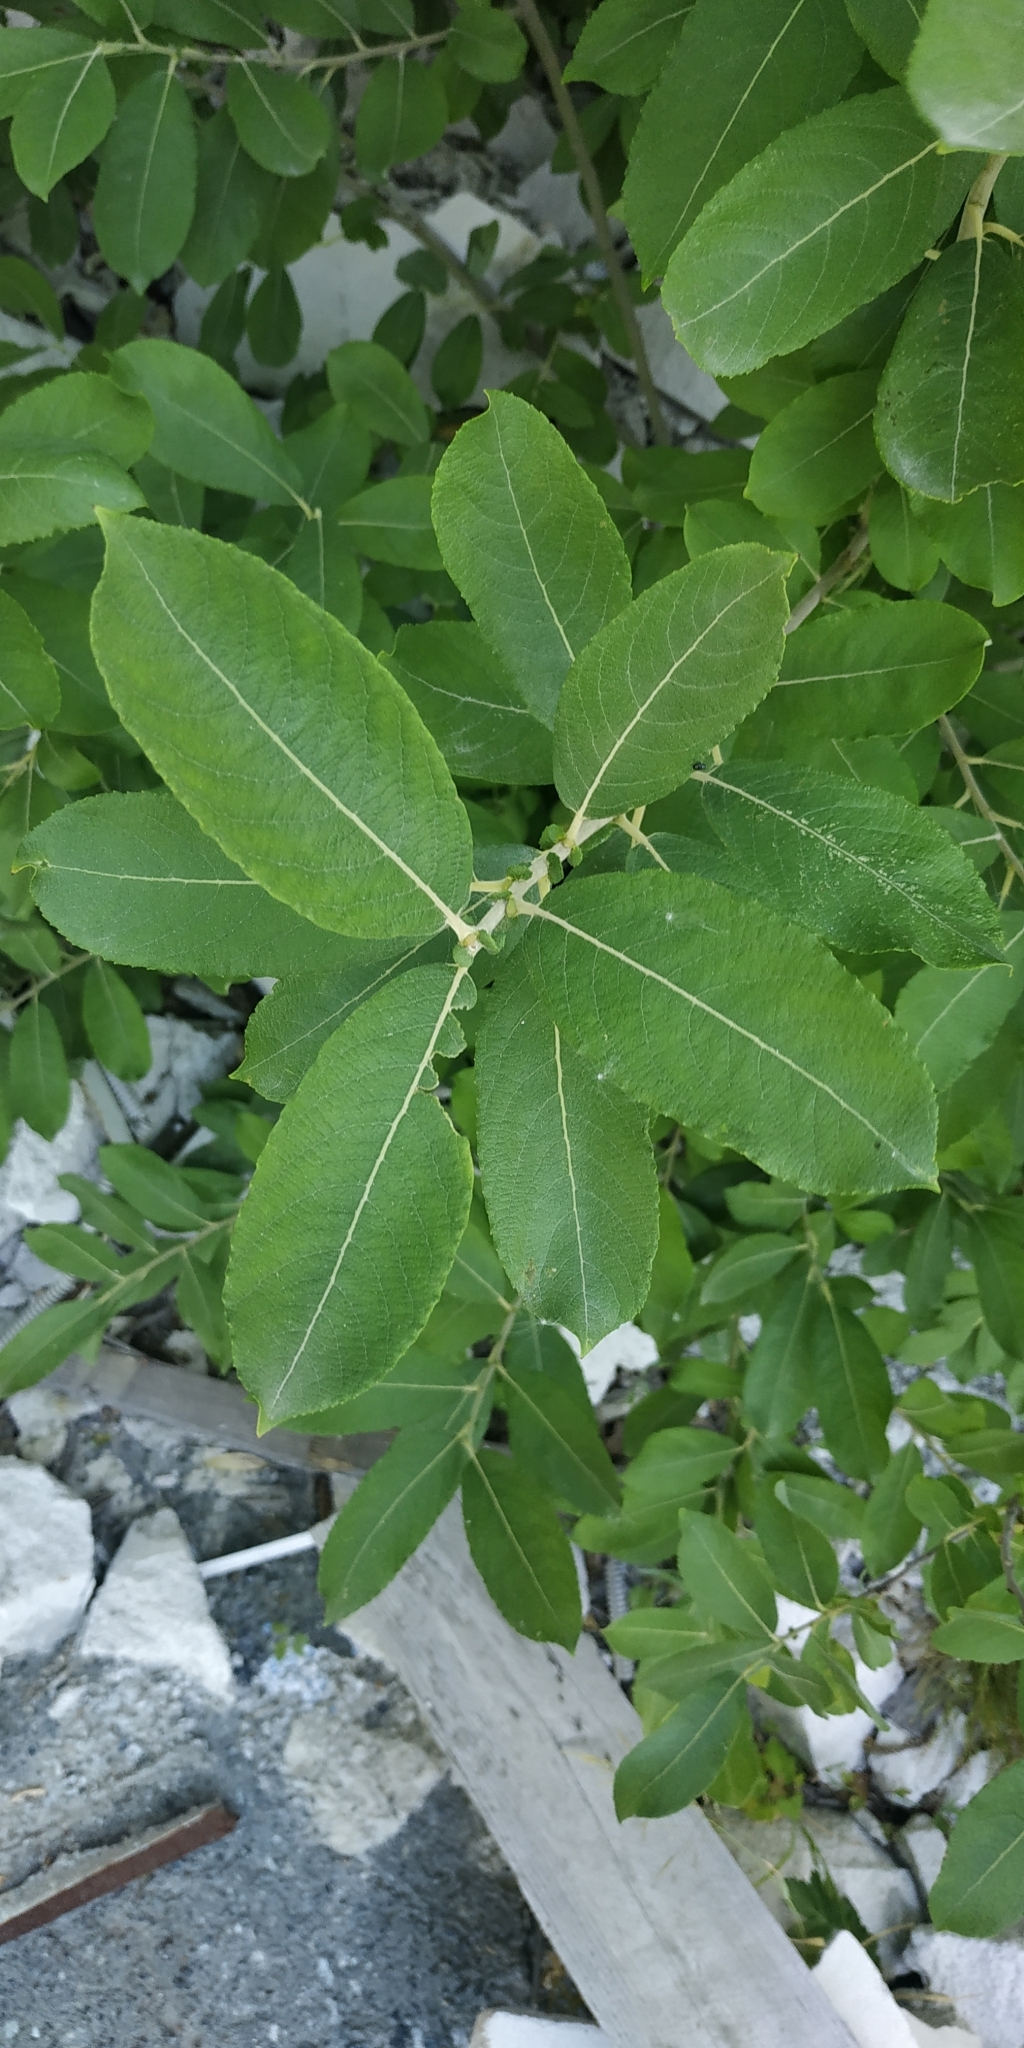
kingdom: Plantae
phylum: Tracheophyta
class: Magnoliopsida
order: Malpighiales
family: Salicaceae
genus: Salix
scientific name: Salix caprea
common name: Goat willow
